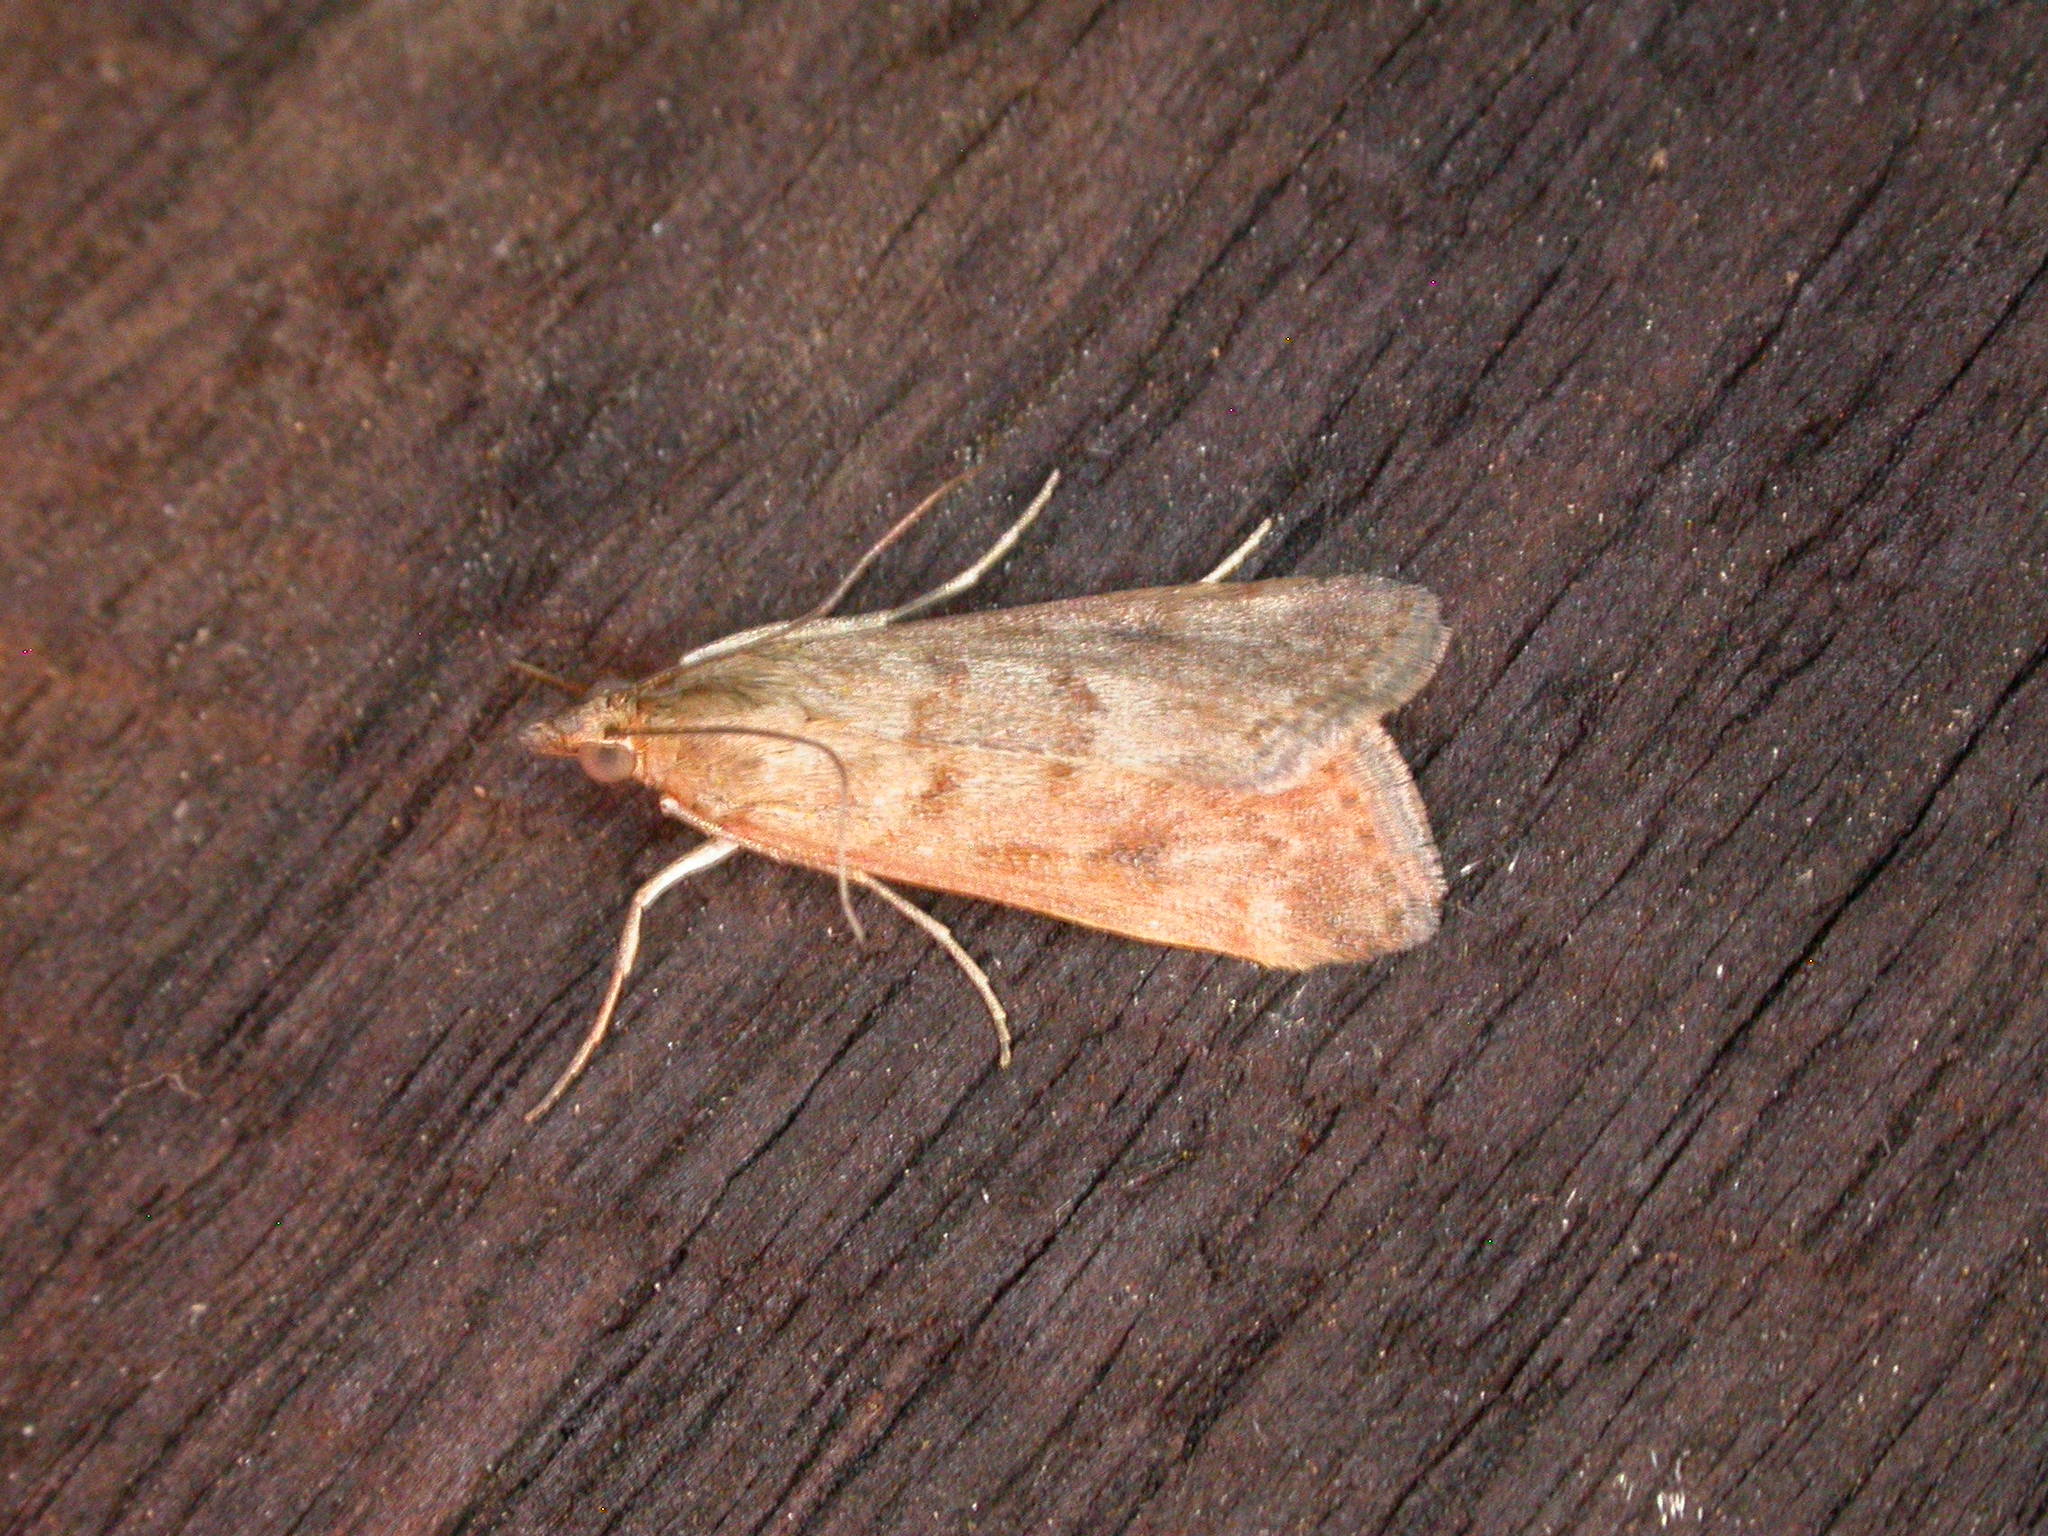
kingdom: Animalia
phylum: Arthropoda
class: Insecta
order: Lepidoptera
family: Crambidae
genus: Achyra
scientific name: Achyra affinitalis
